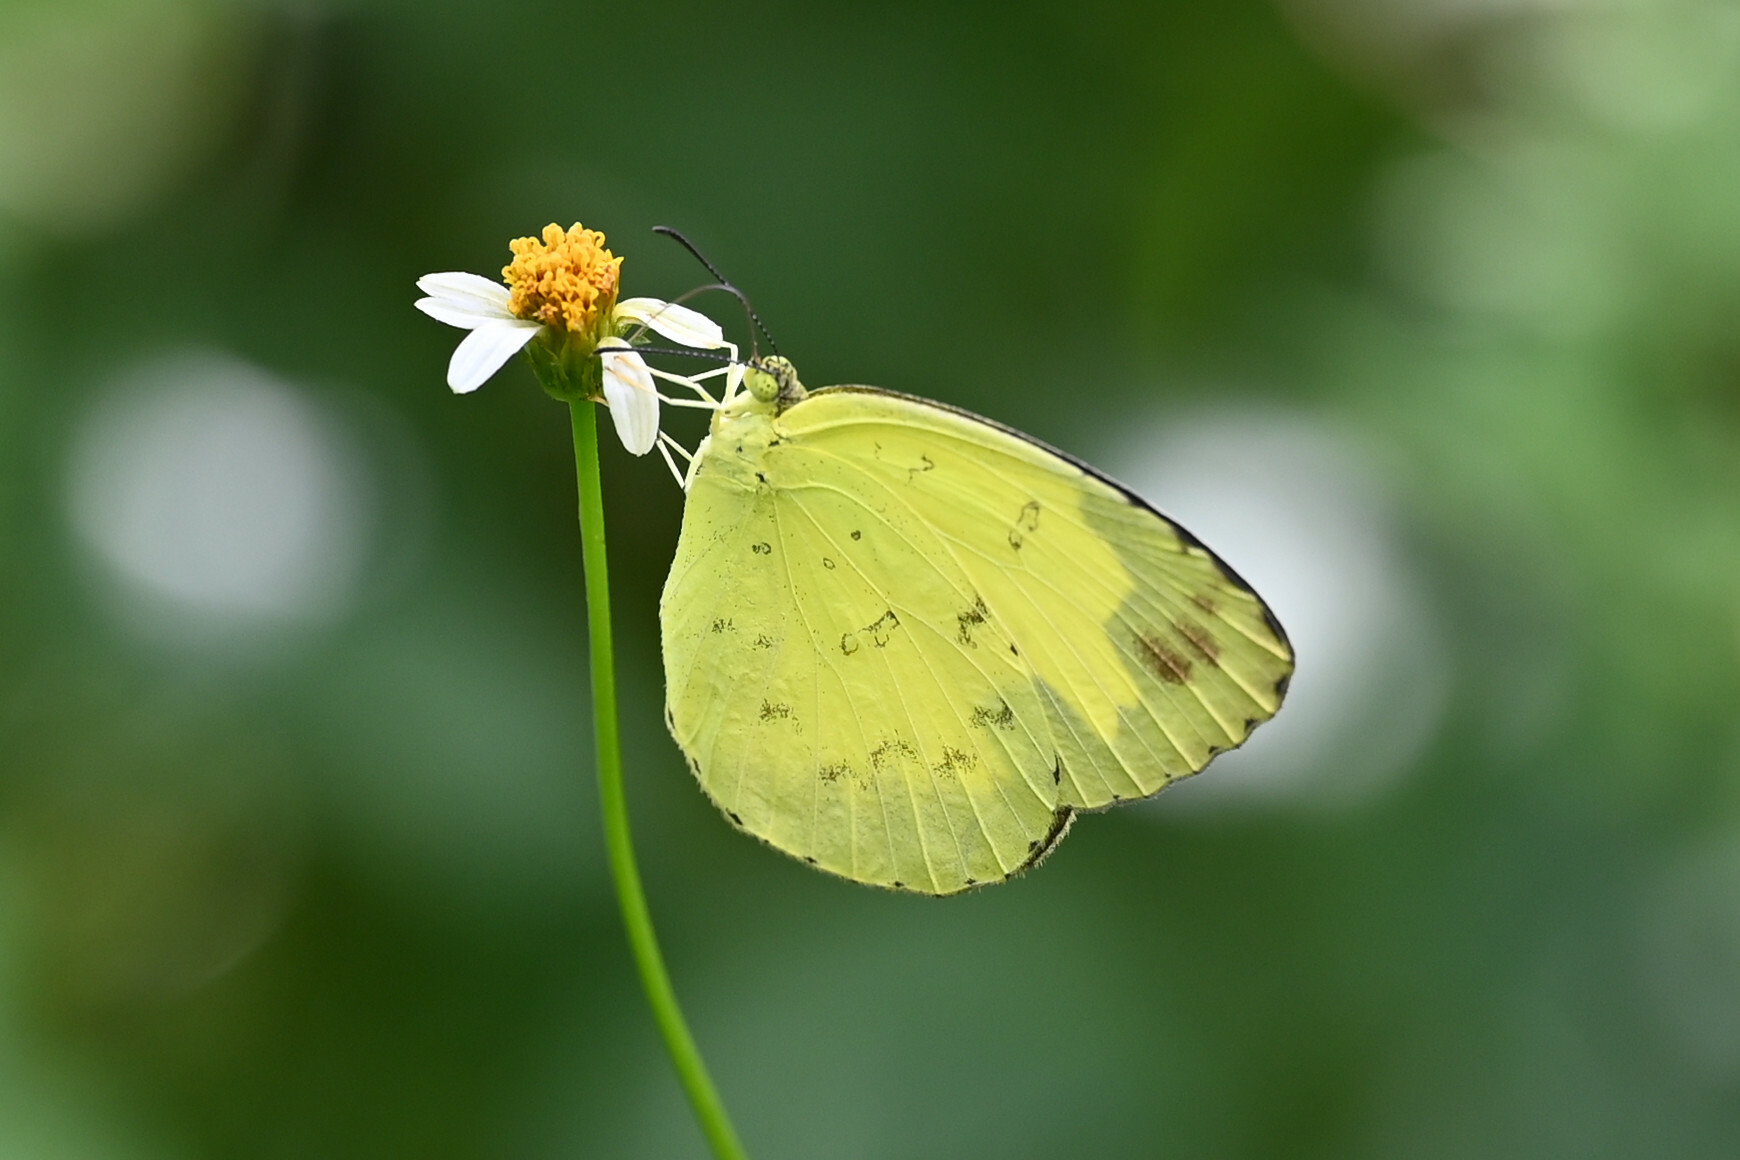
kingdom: Animalia
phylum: Arthropoda
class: Insecta
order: Lepidoptera
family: Pieridae
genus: Eurema
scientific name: Eurema hecabe
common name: Pale grass yellow
